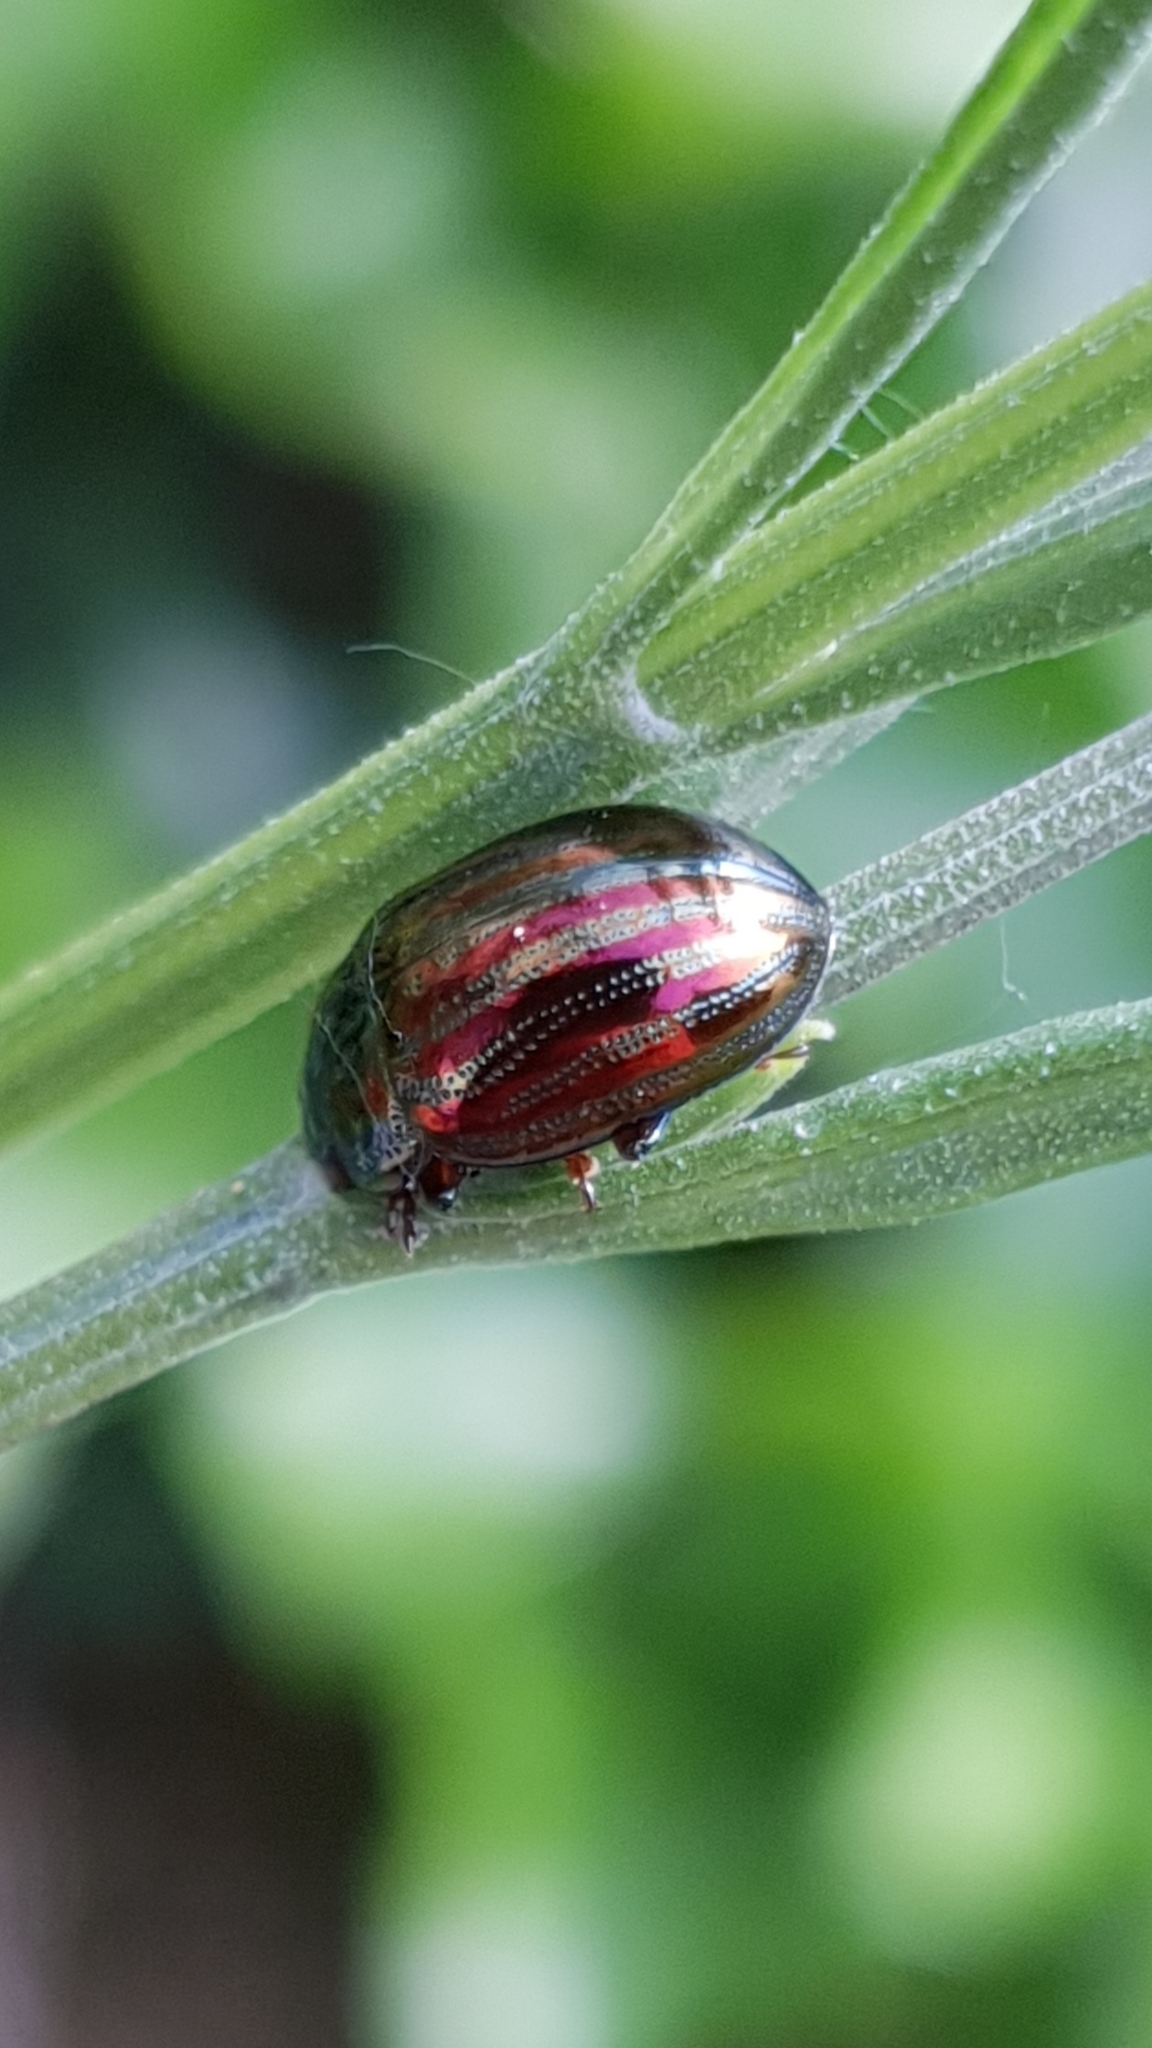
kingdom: Animalia
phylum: Arthropoda
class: Insecta
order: Coleoptera
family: Chrysomelidae
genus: Chrysolina
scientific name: Chrysolina americana
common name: Rosemary beetle
